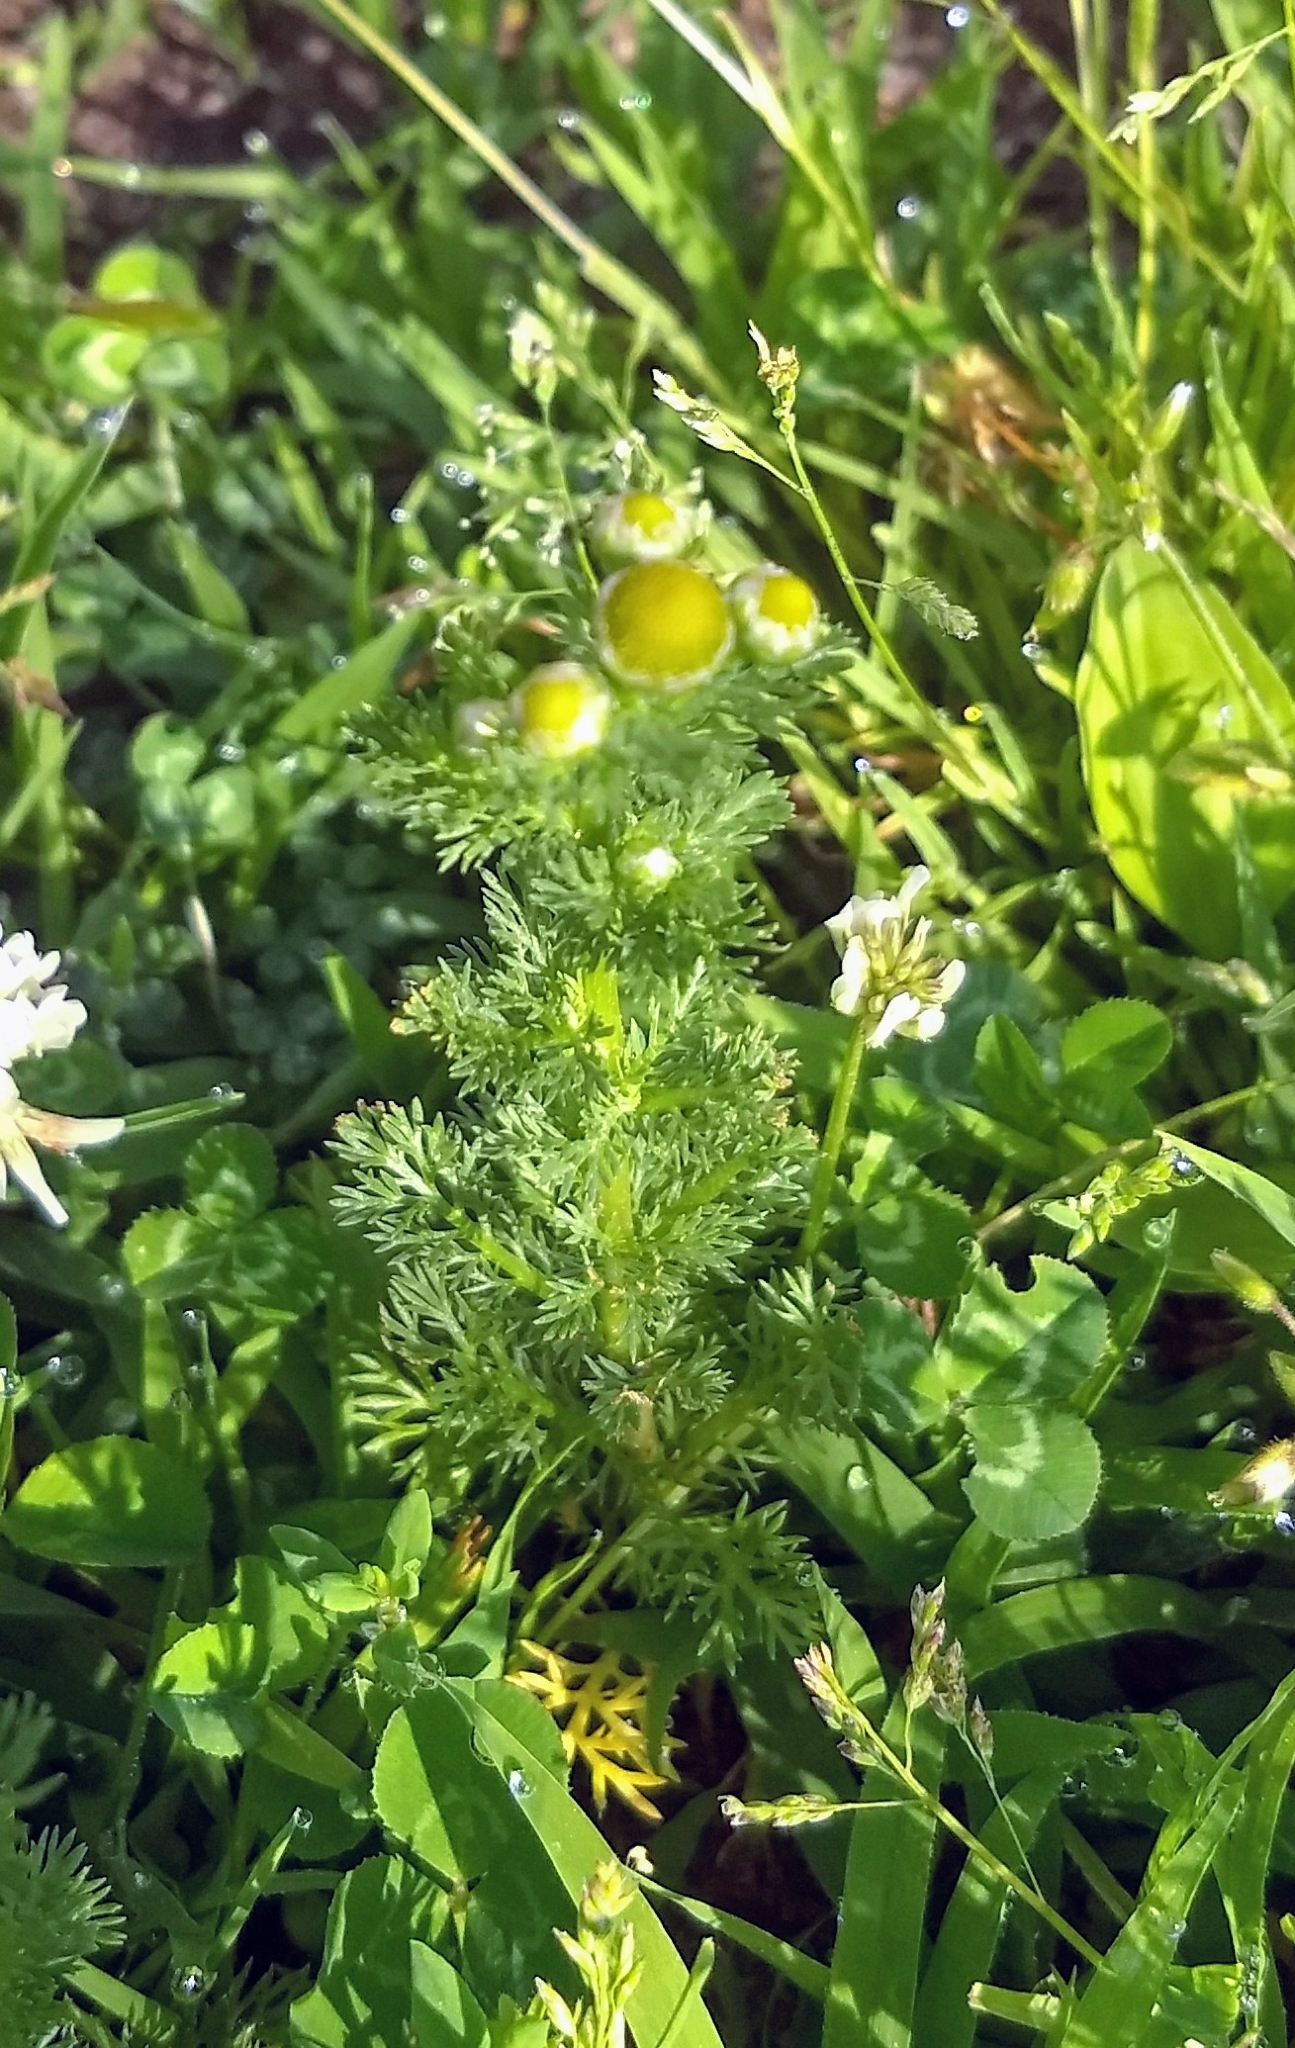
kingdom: Plantae
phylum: Tracheophyta
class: Magnoliopsida
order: Asterales
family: Asteraceae
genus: Matricaria
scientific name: Matricaria discoidea
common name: Disc mayweed
